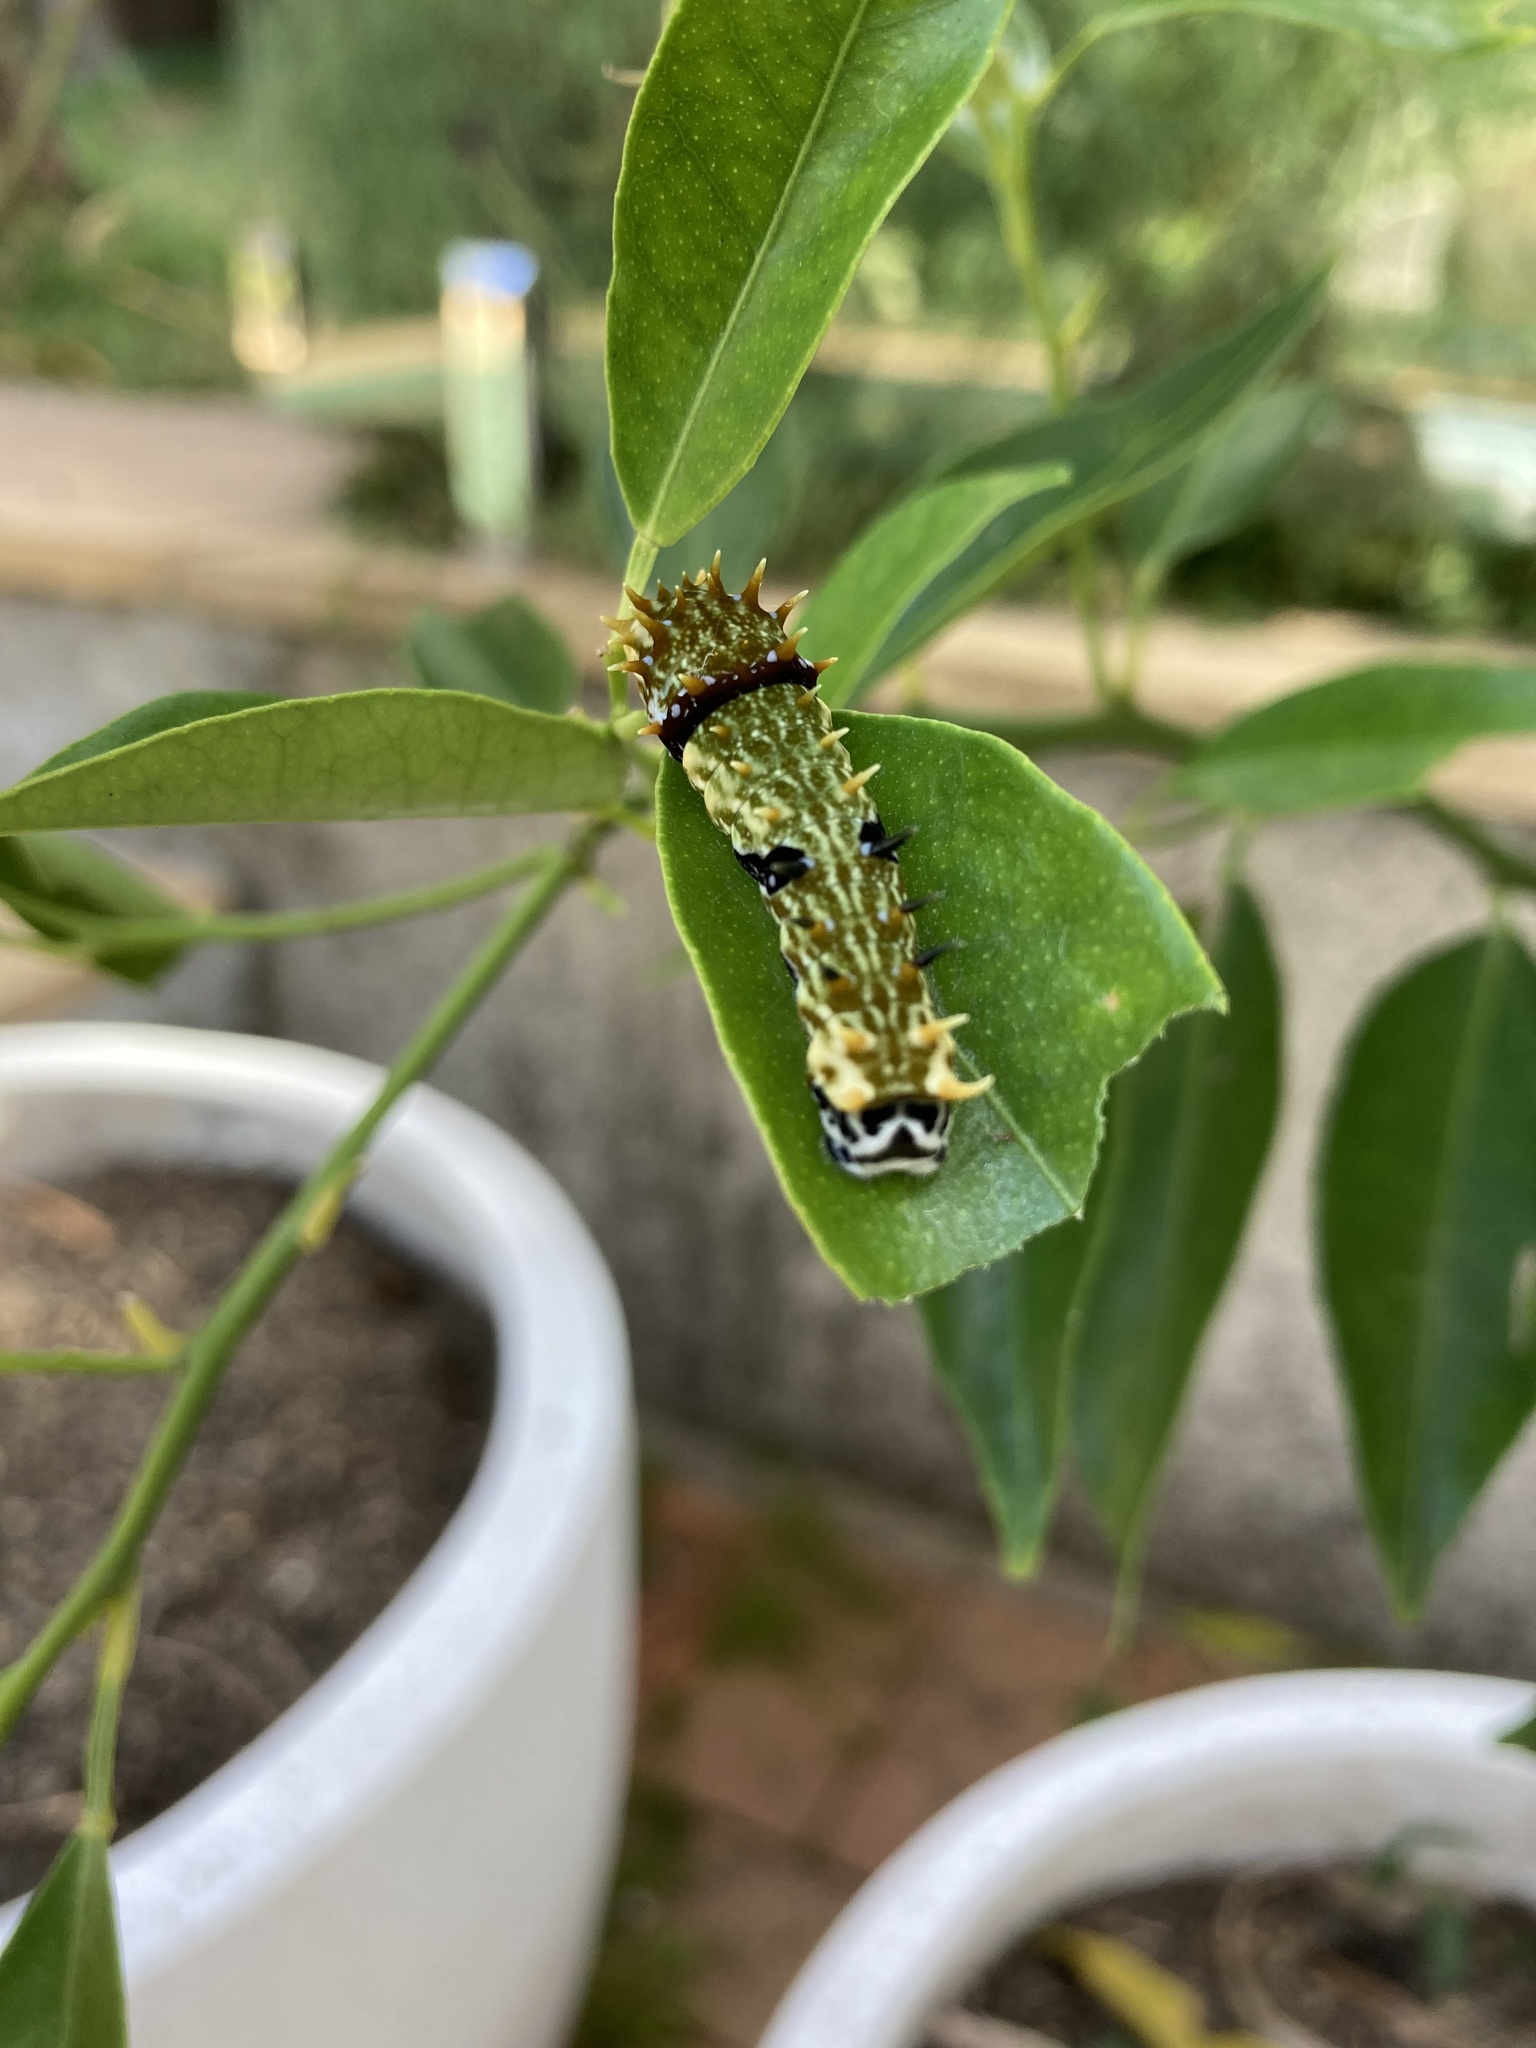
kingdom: Animalia
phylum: Arthropoda
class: Insecta
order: Lepidoptera
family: Papilionidae
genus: Papilio
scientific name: Papilio aegeus
